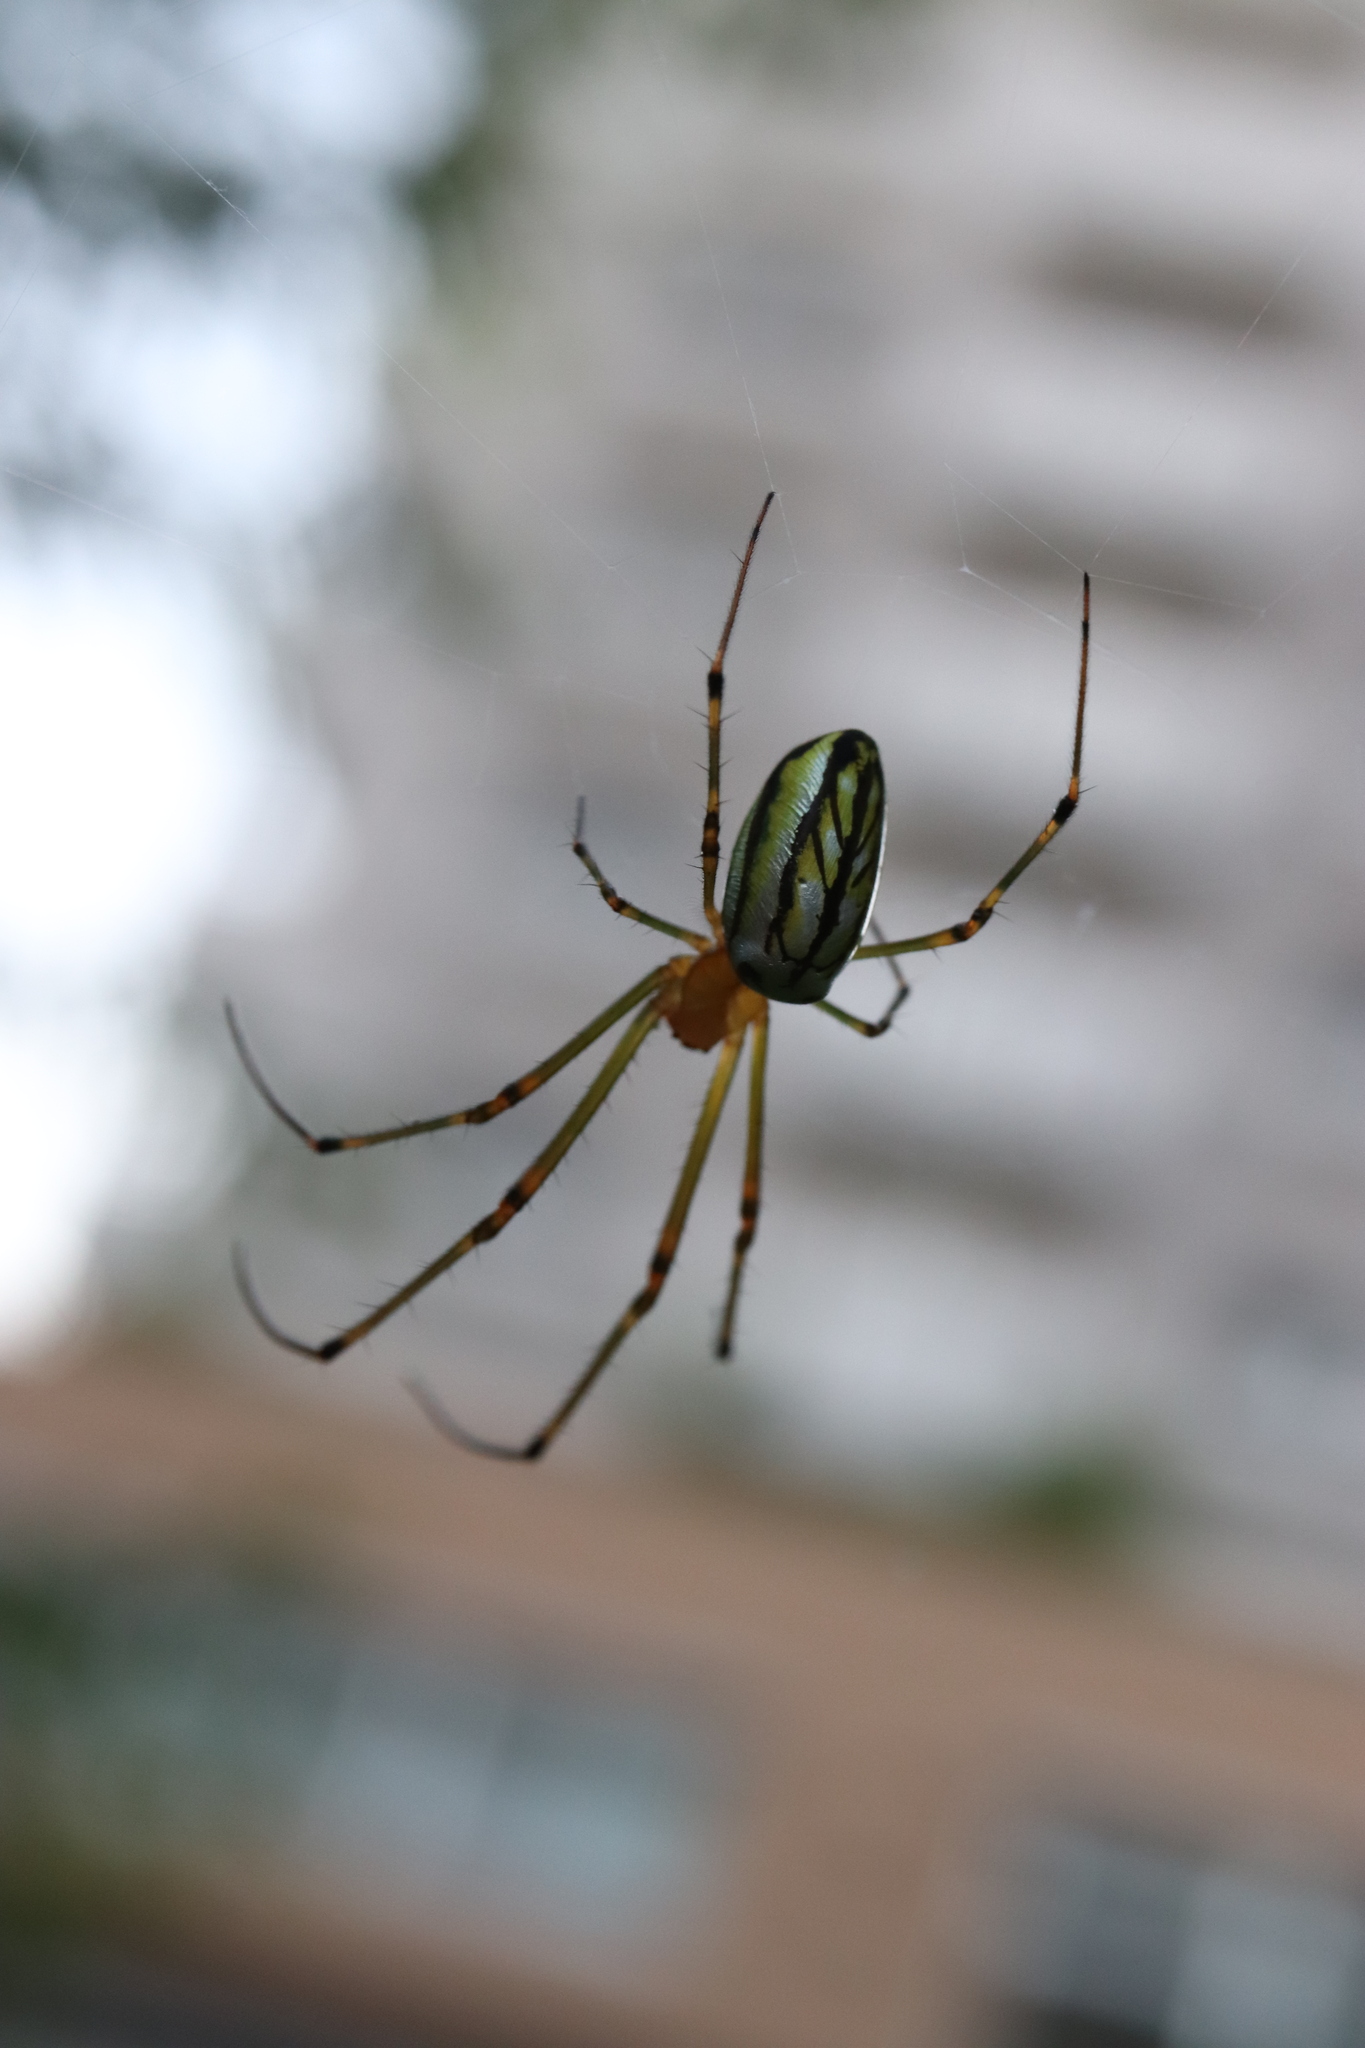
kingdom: Animalia
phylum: Arthropoda
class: Arachnida
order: Araneae
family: Tetragnathidae
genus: Leucauge
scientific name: Leucauge blanda
